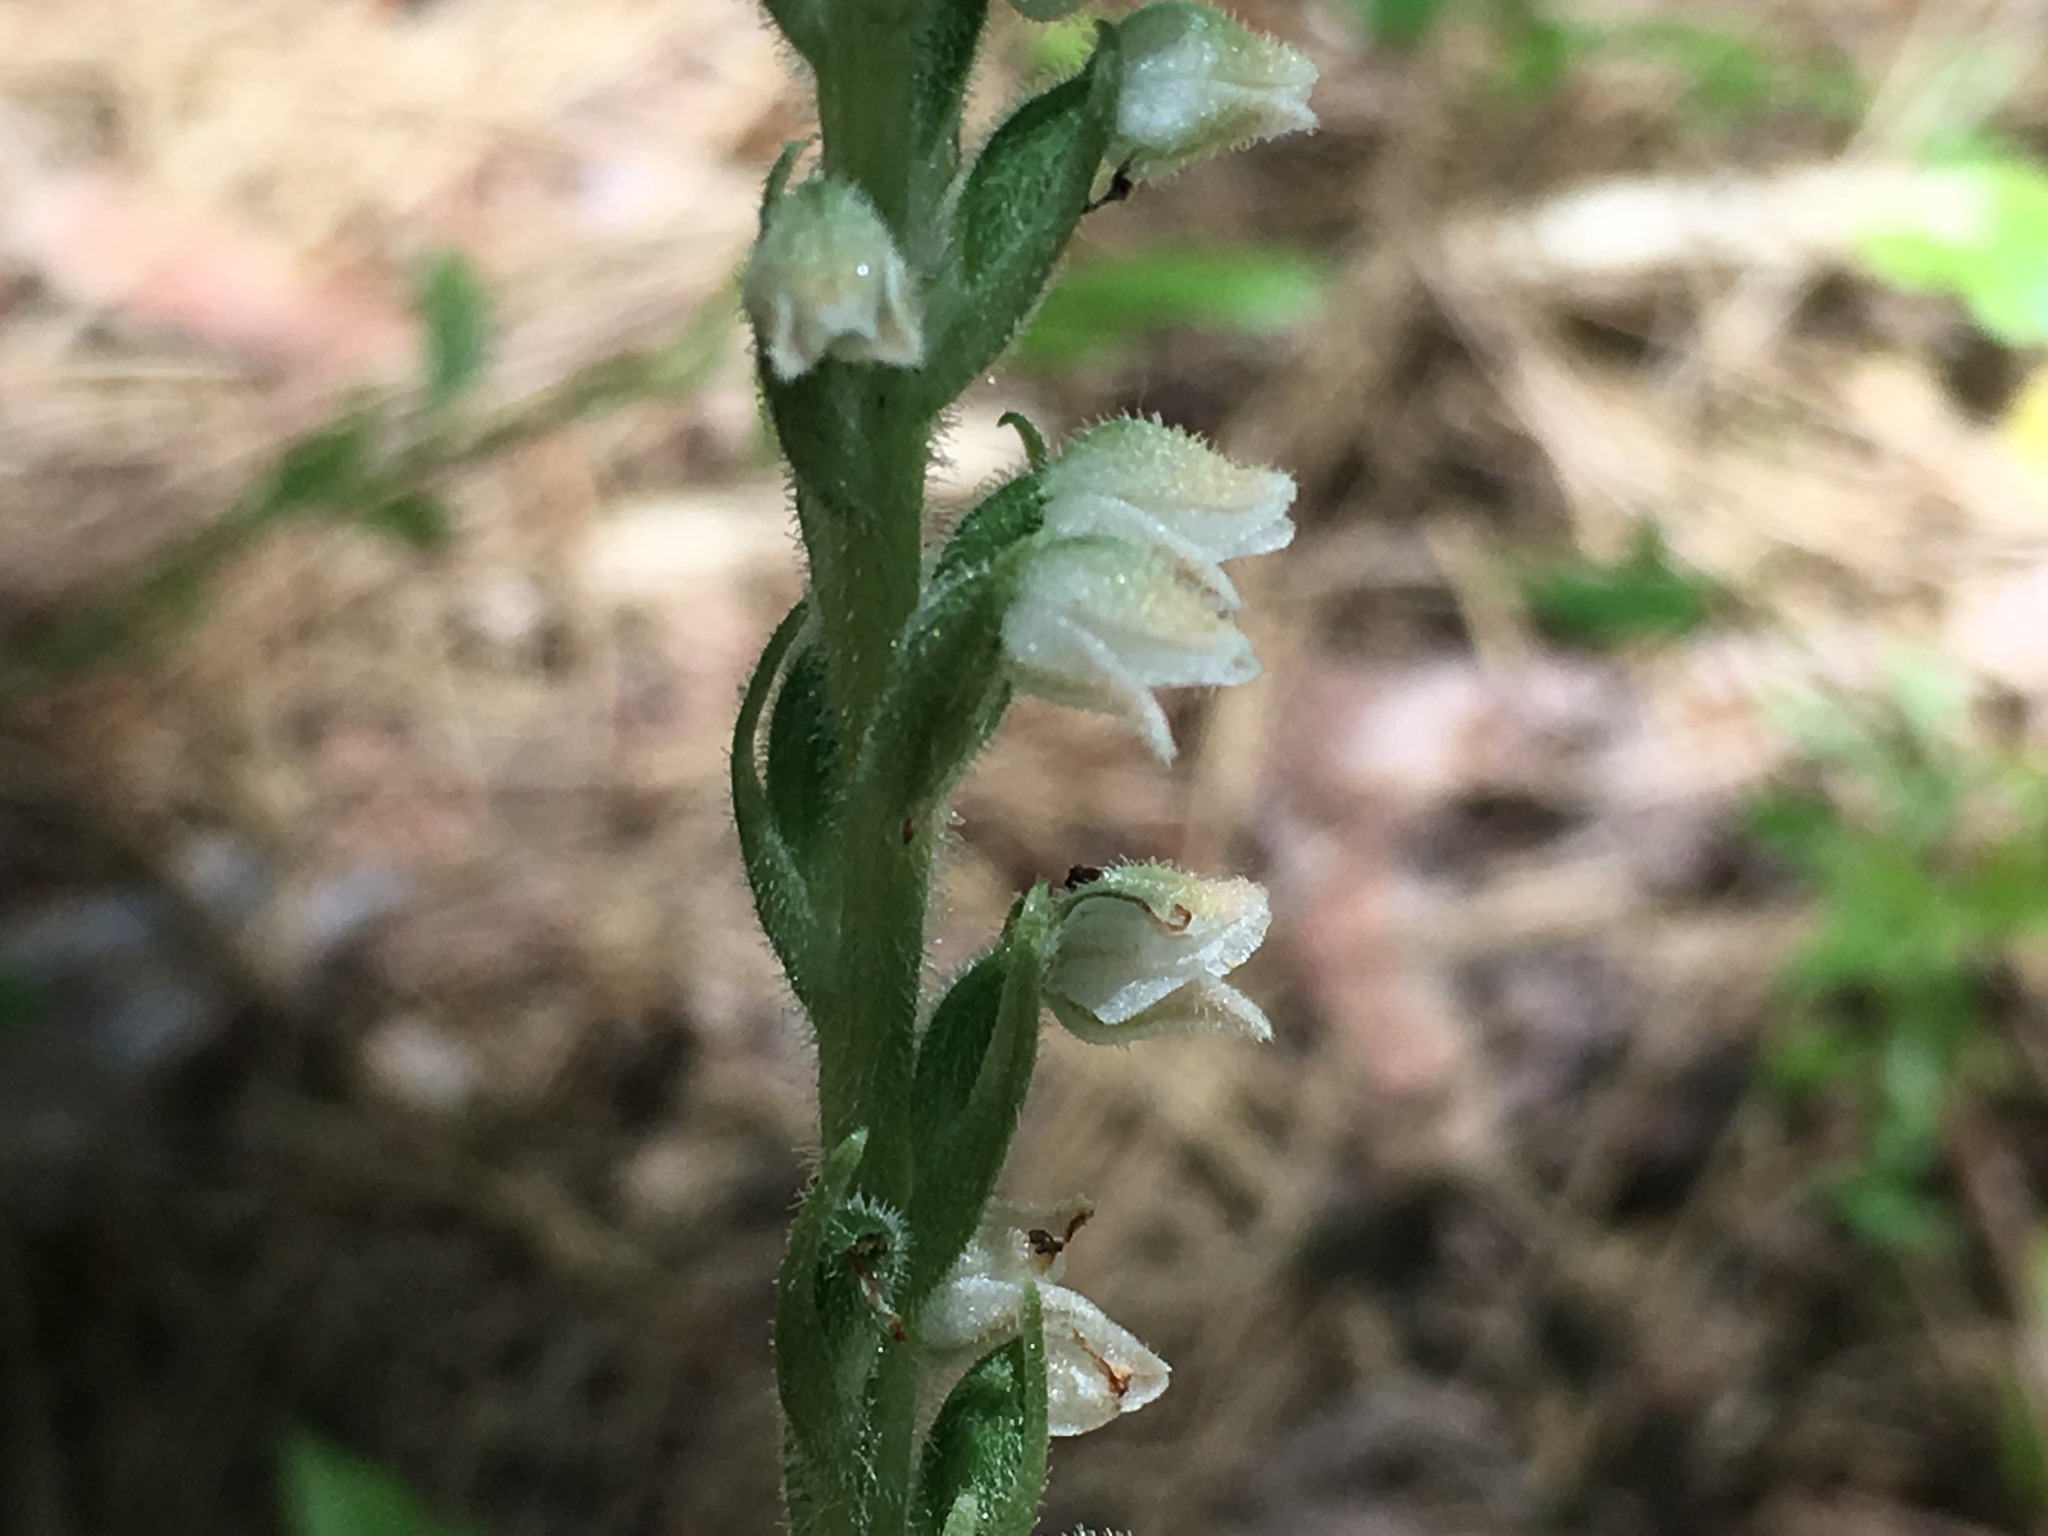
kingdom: Plantae
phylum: Tracheophyta
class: Liliopsida
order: Asparagales
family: Orchidaceae
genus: Goodyera
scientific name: Goodyera tesselata
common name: Checkered rattlesnake-plantain
